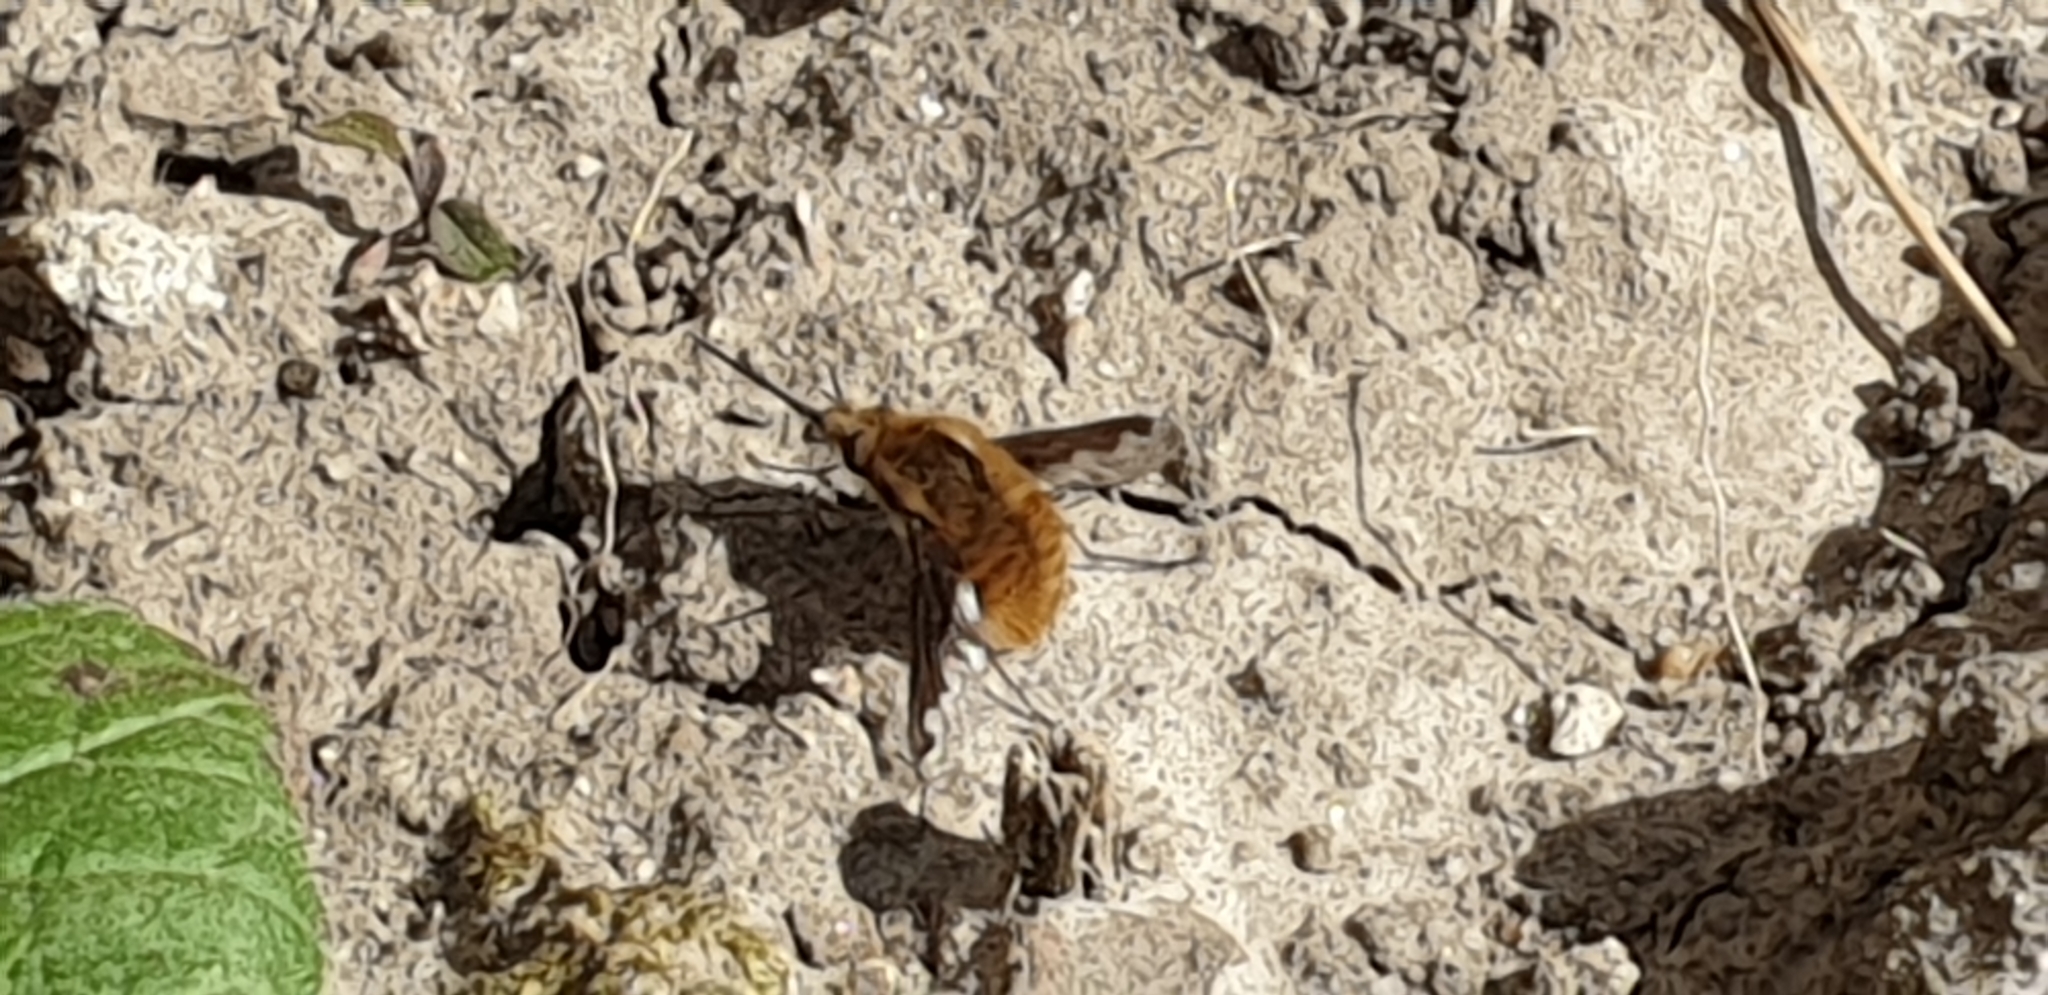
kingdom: Animalia
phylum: Arthropoda
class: Insecta
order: Diptera
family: Bombyliidae
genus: Bombylius
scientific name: Bombylius major
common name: Bee fly
